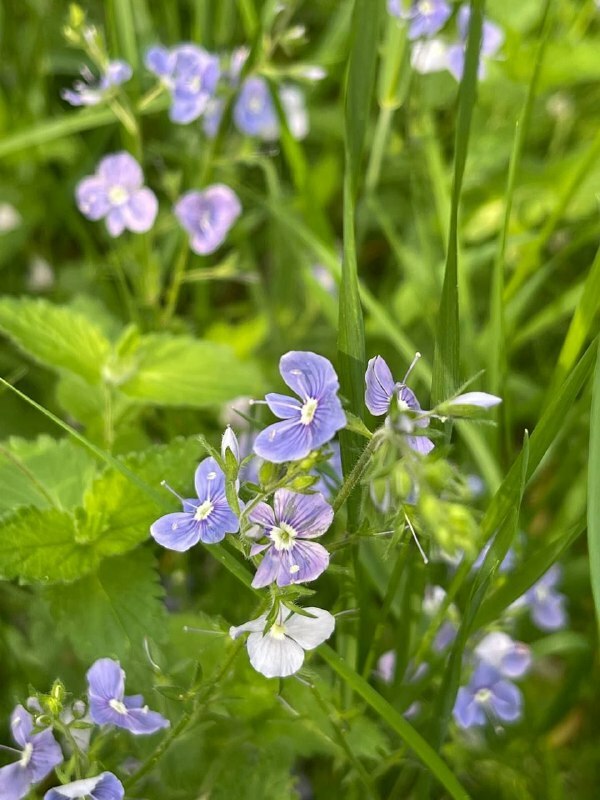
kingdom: Plantae
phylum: Tracheophyta
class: Magnoliopsida
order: Lamiales
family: Plantaginaceae
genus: Veronica
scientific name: Veronica chamaedrys
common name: Germander speedwell
